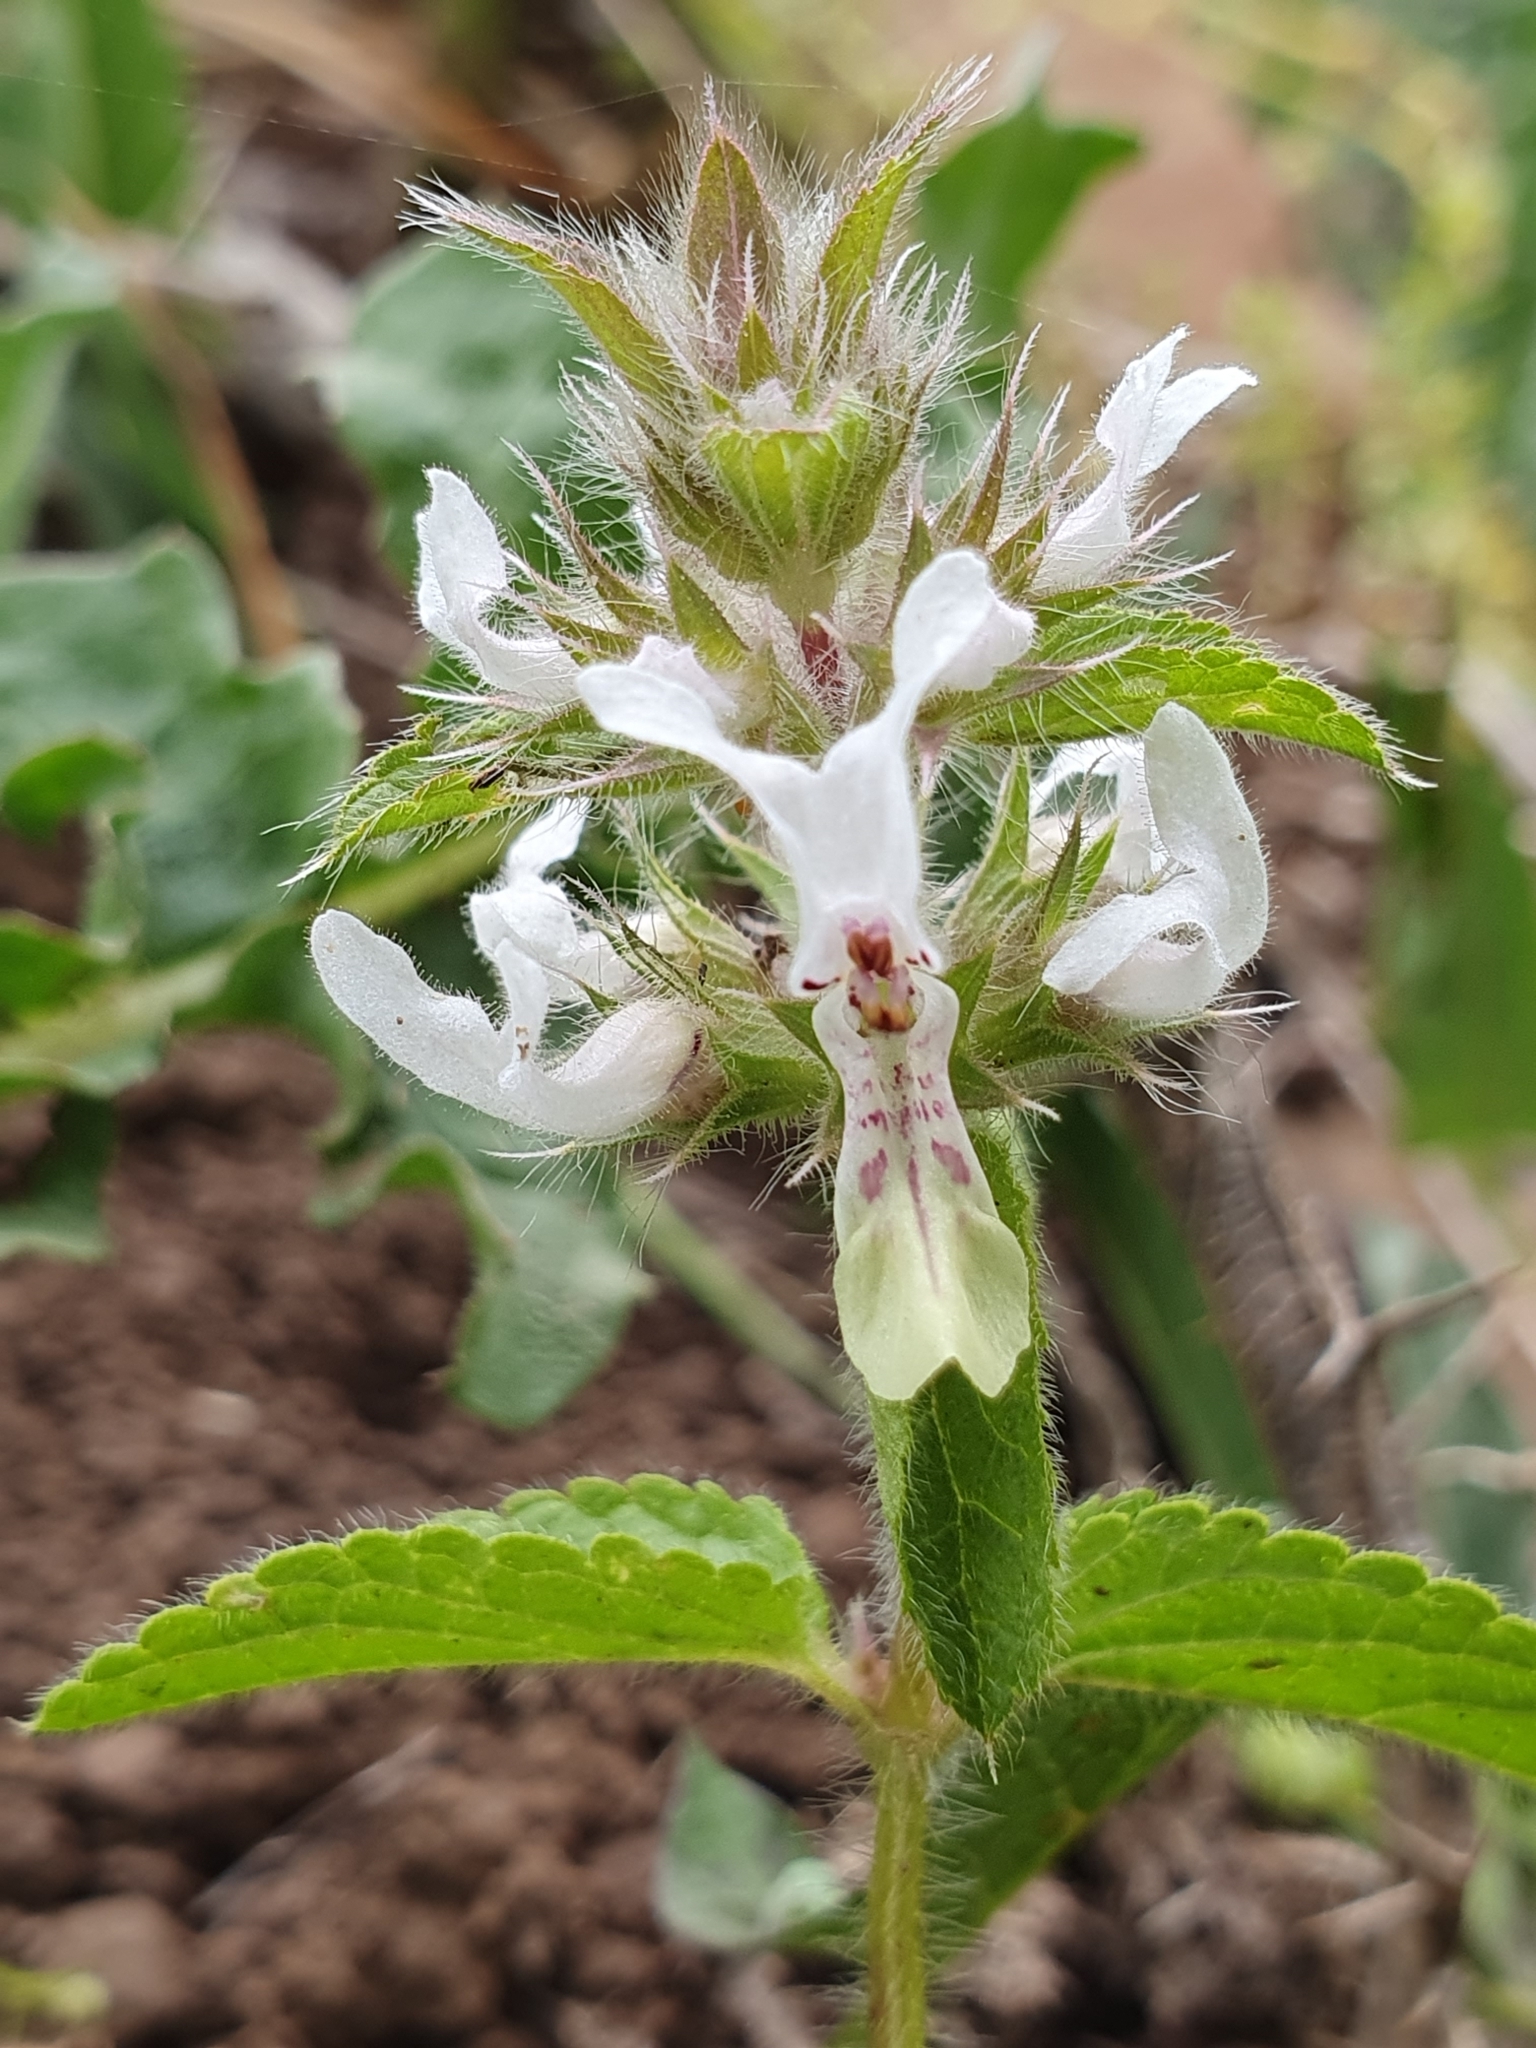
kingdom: Plantae
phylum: Tracheophyta
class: Magnoliopsida
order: Lamiales
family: Lamiaceae
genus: Stachys
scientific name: Stachys ocymastrum
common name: Italian hedgenettle
